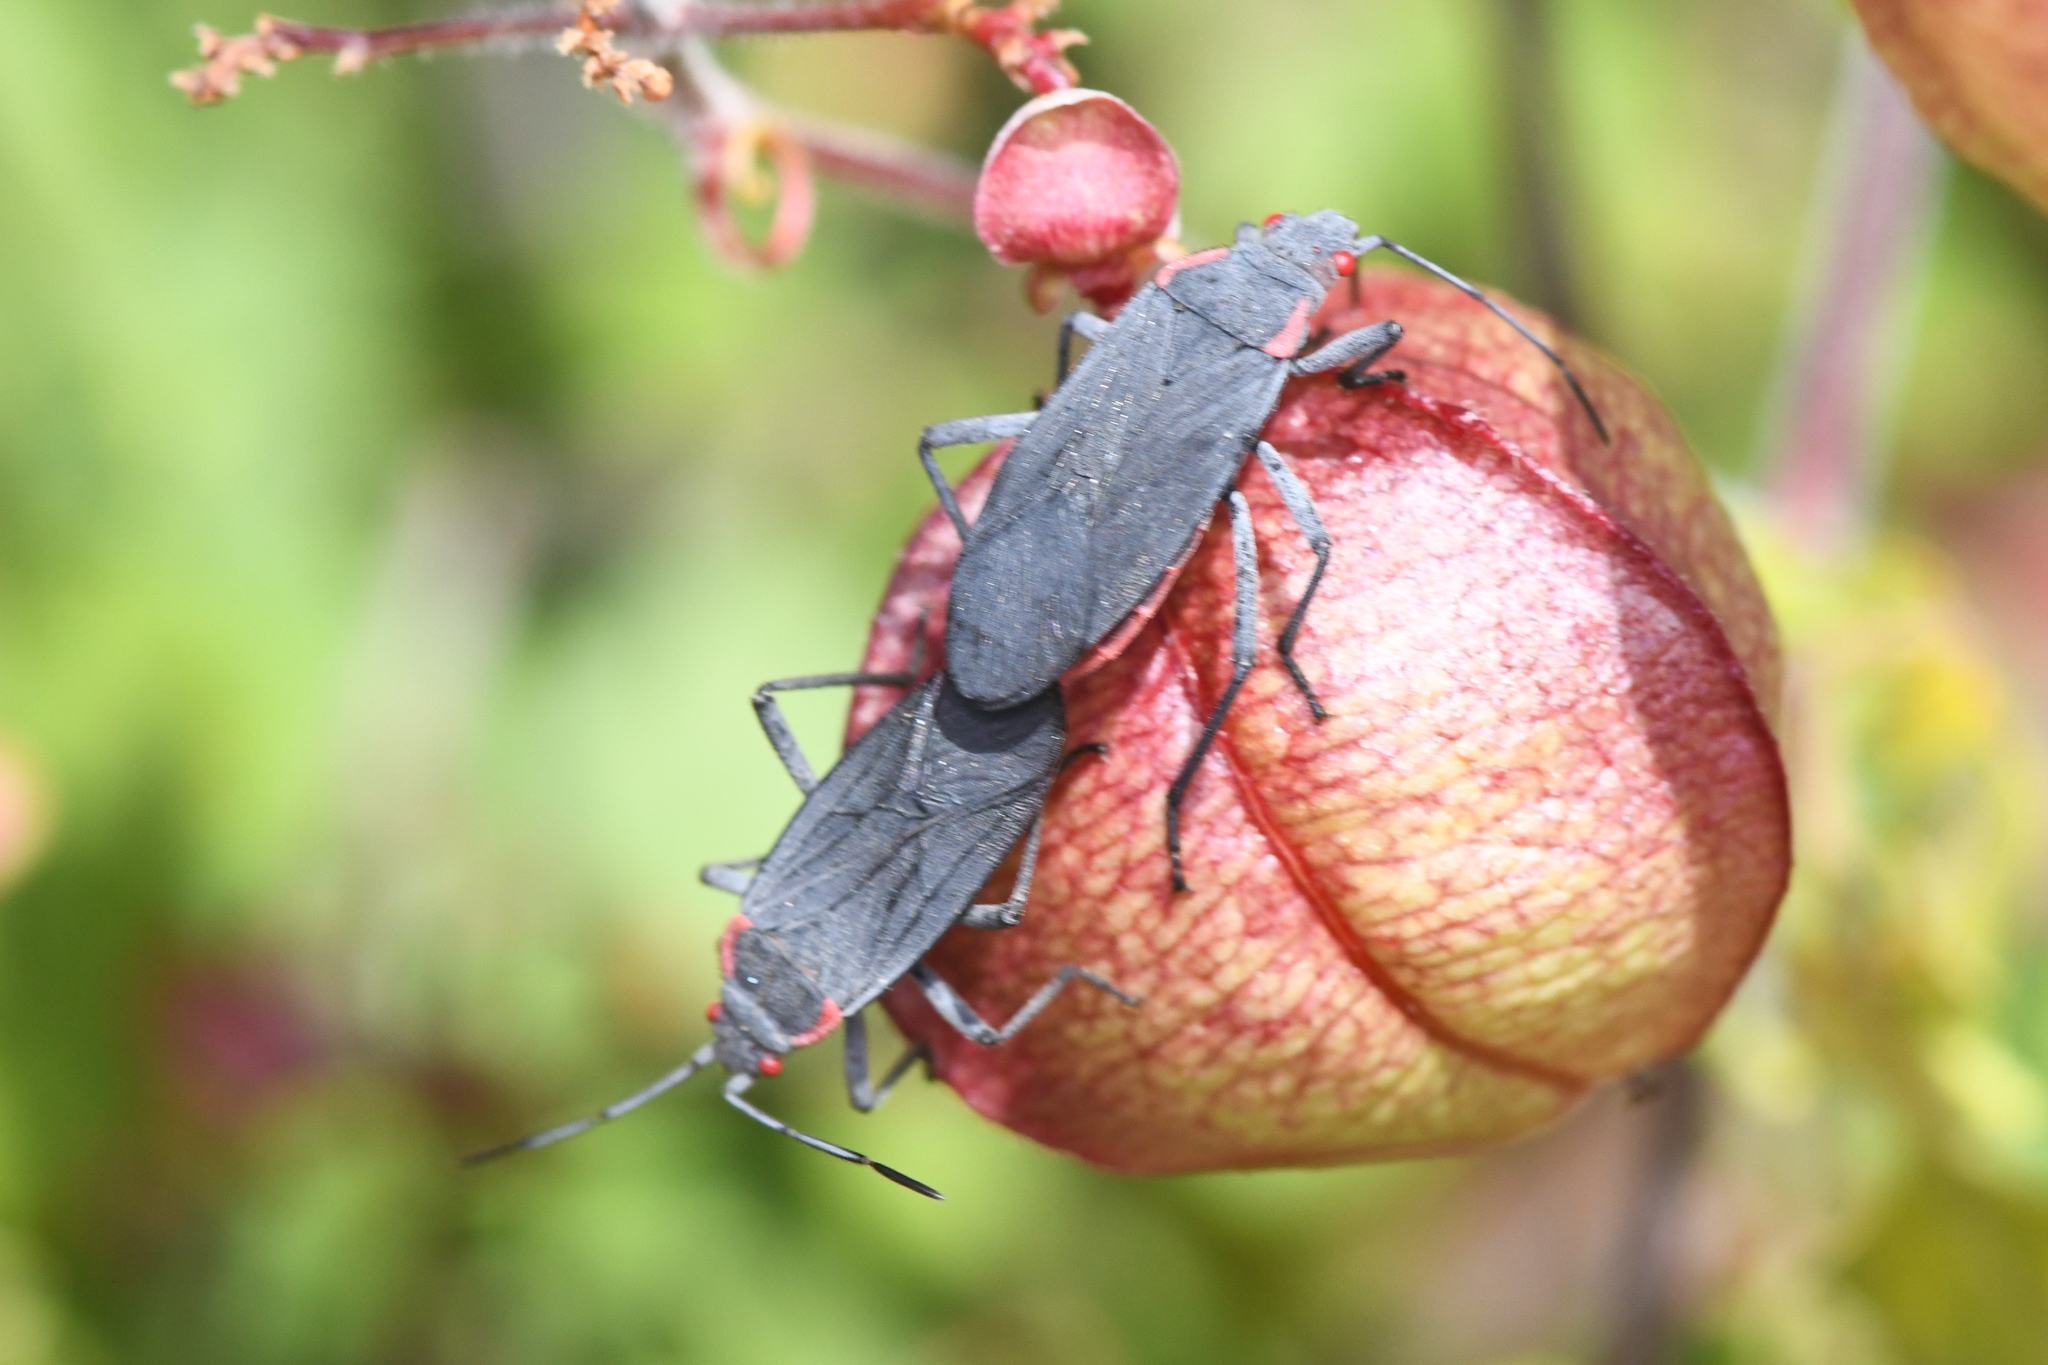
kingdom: Animalia
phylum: Arthropoda
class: Insecta
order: Hemiptera
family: Rhopalidae
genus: Jadera
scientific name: Jadera haematoloma
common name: Red-shouldered bug
